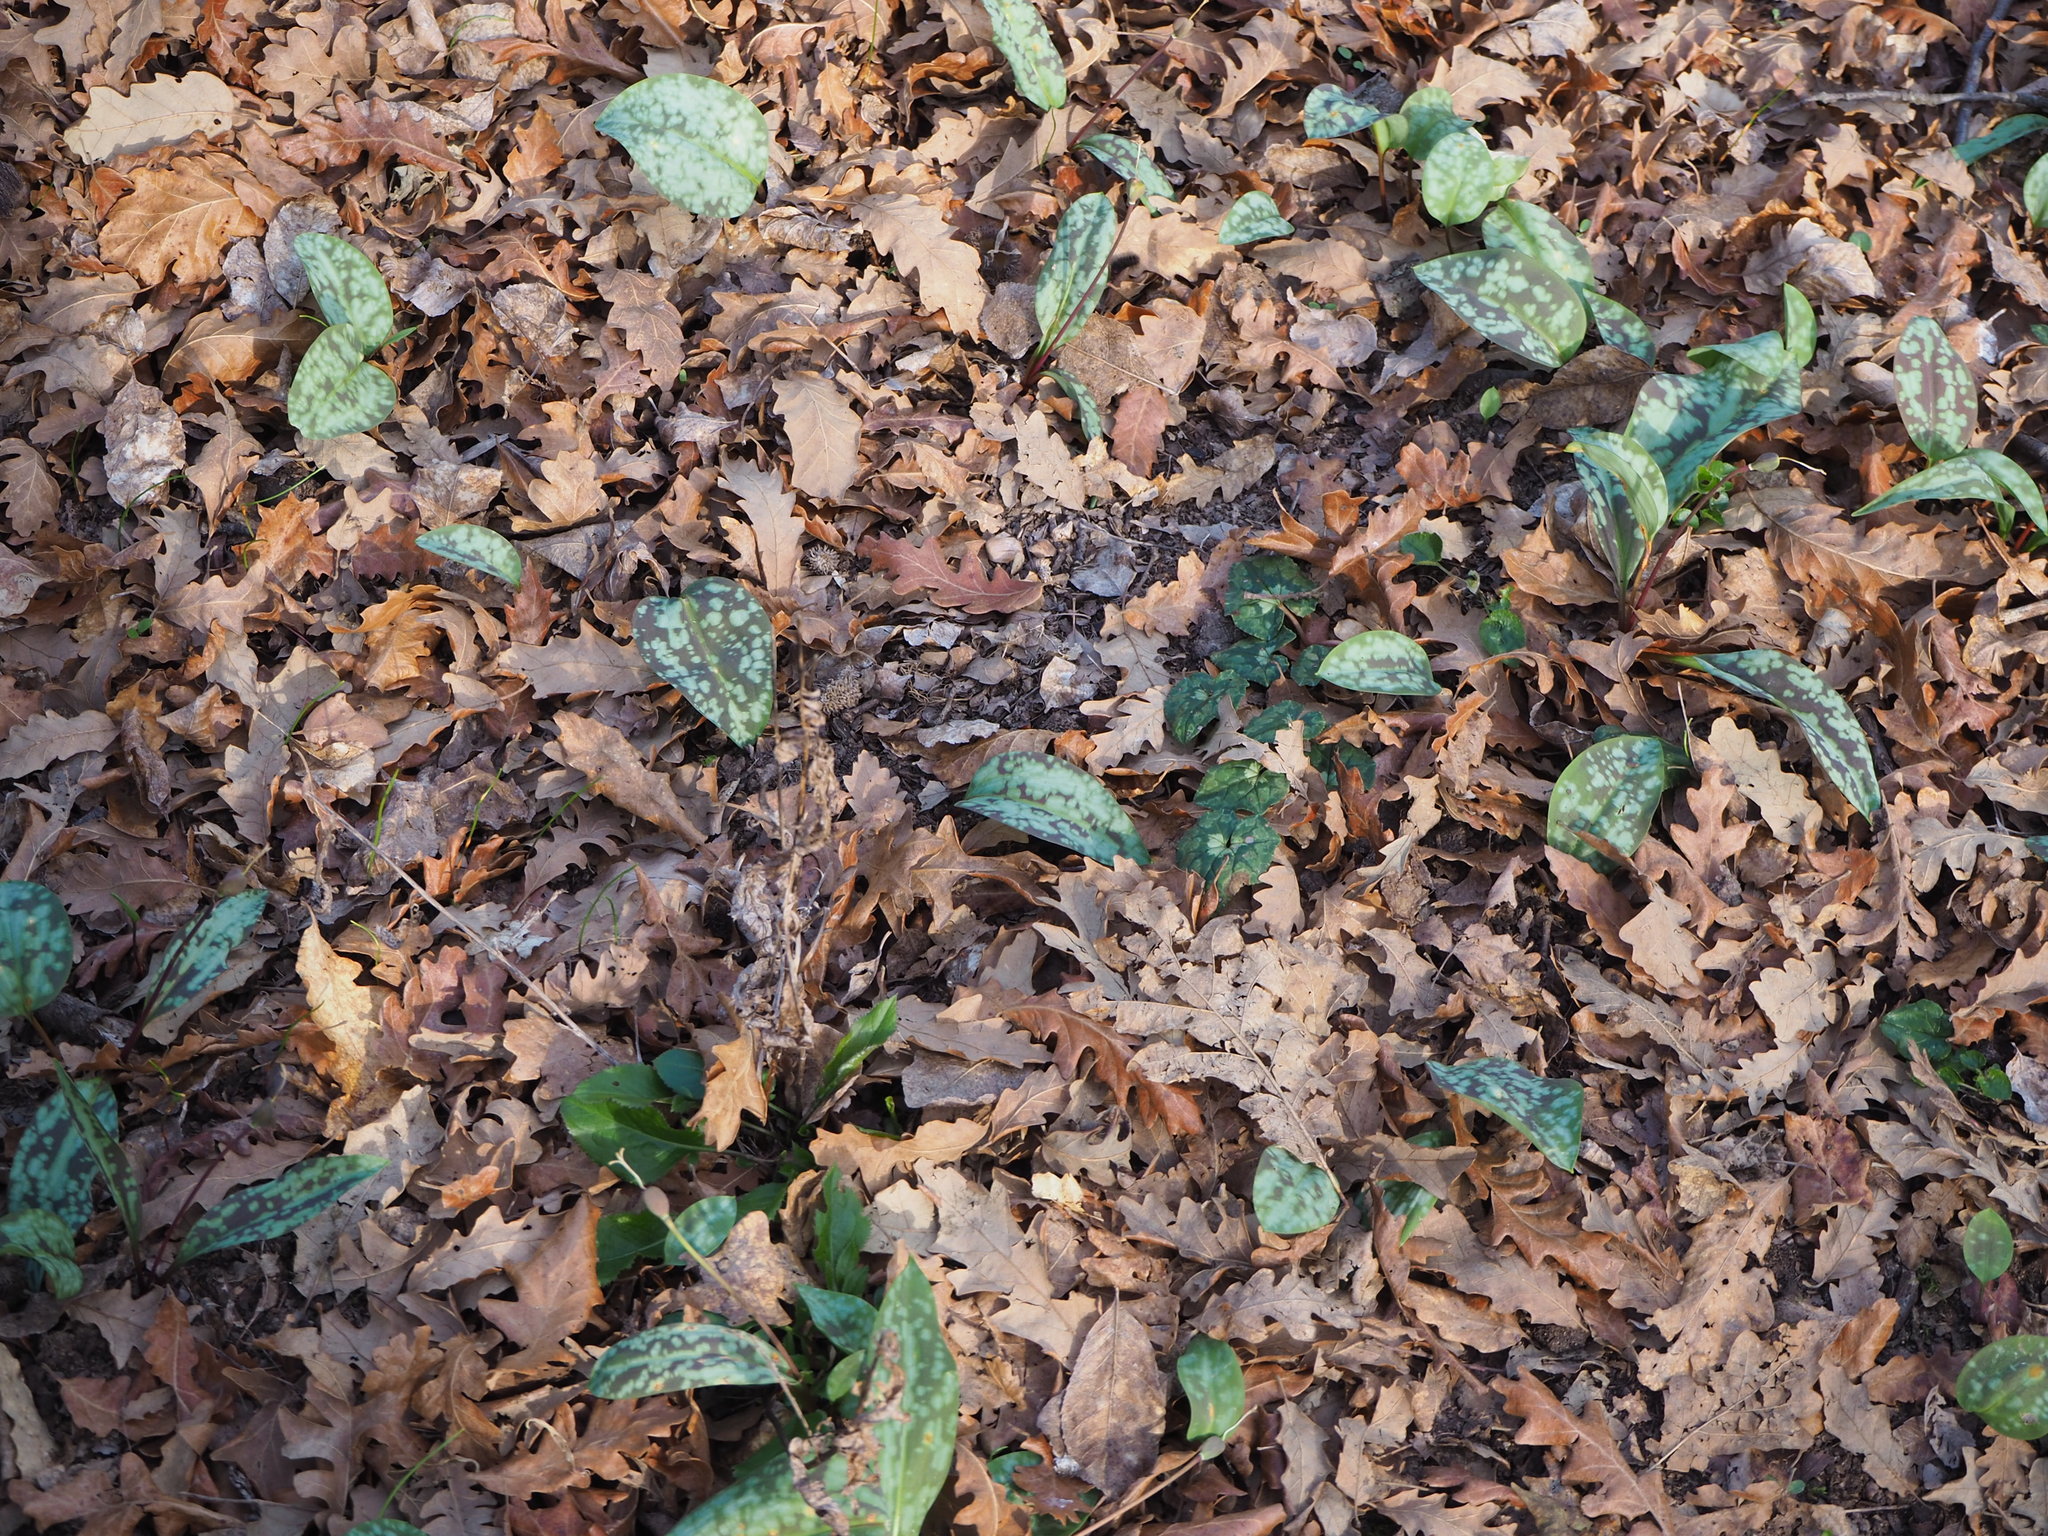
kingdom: Plantae
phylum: Tracheophyta
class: Liliopsida
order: Liliales
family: Liliaceae
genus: Erythronium
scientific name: Erythronium dens-canis
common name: Dog's-tooth-violet
